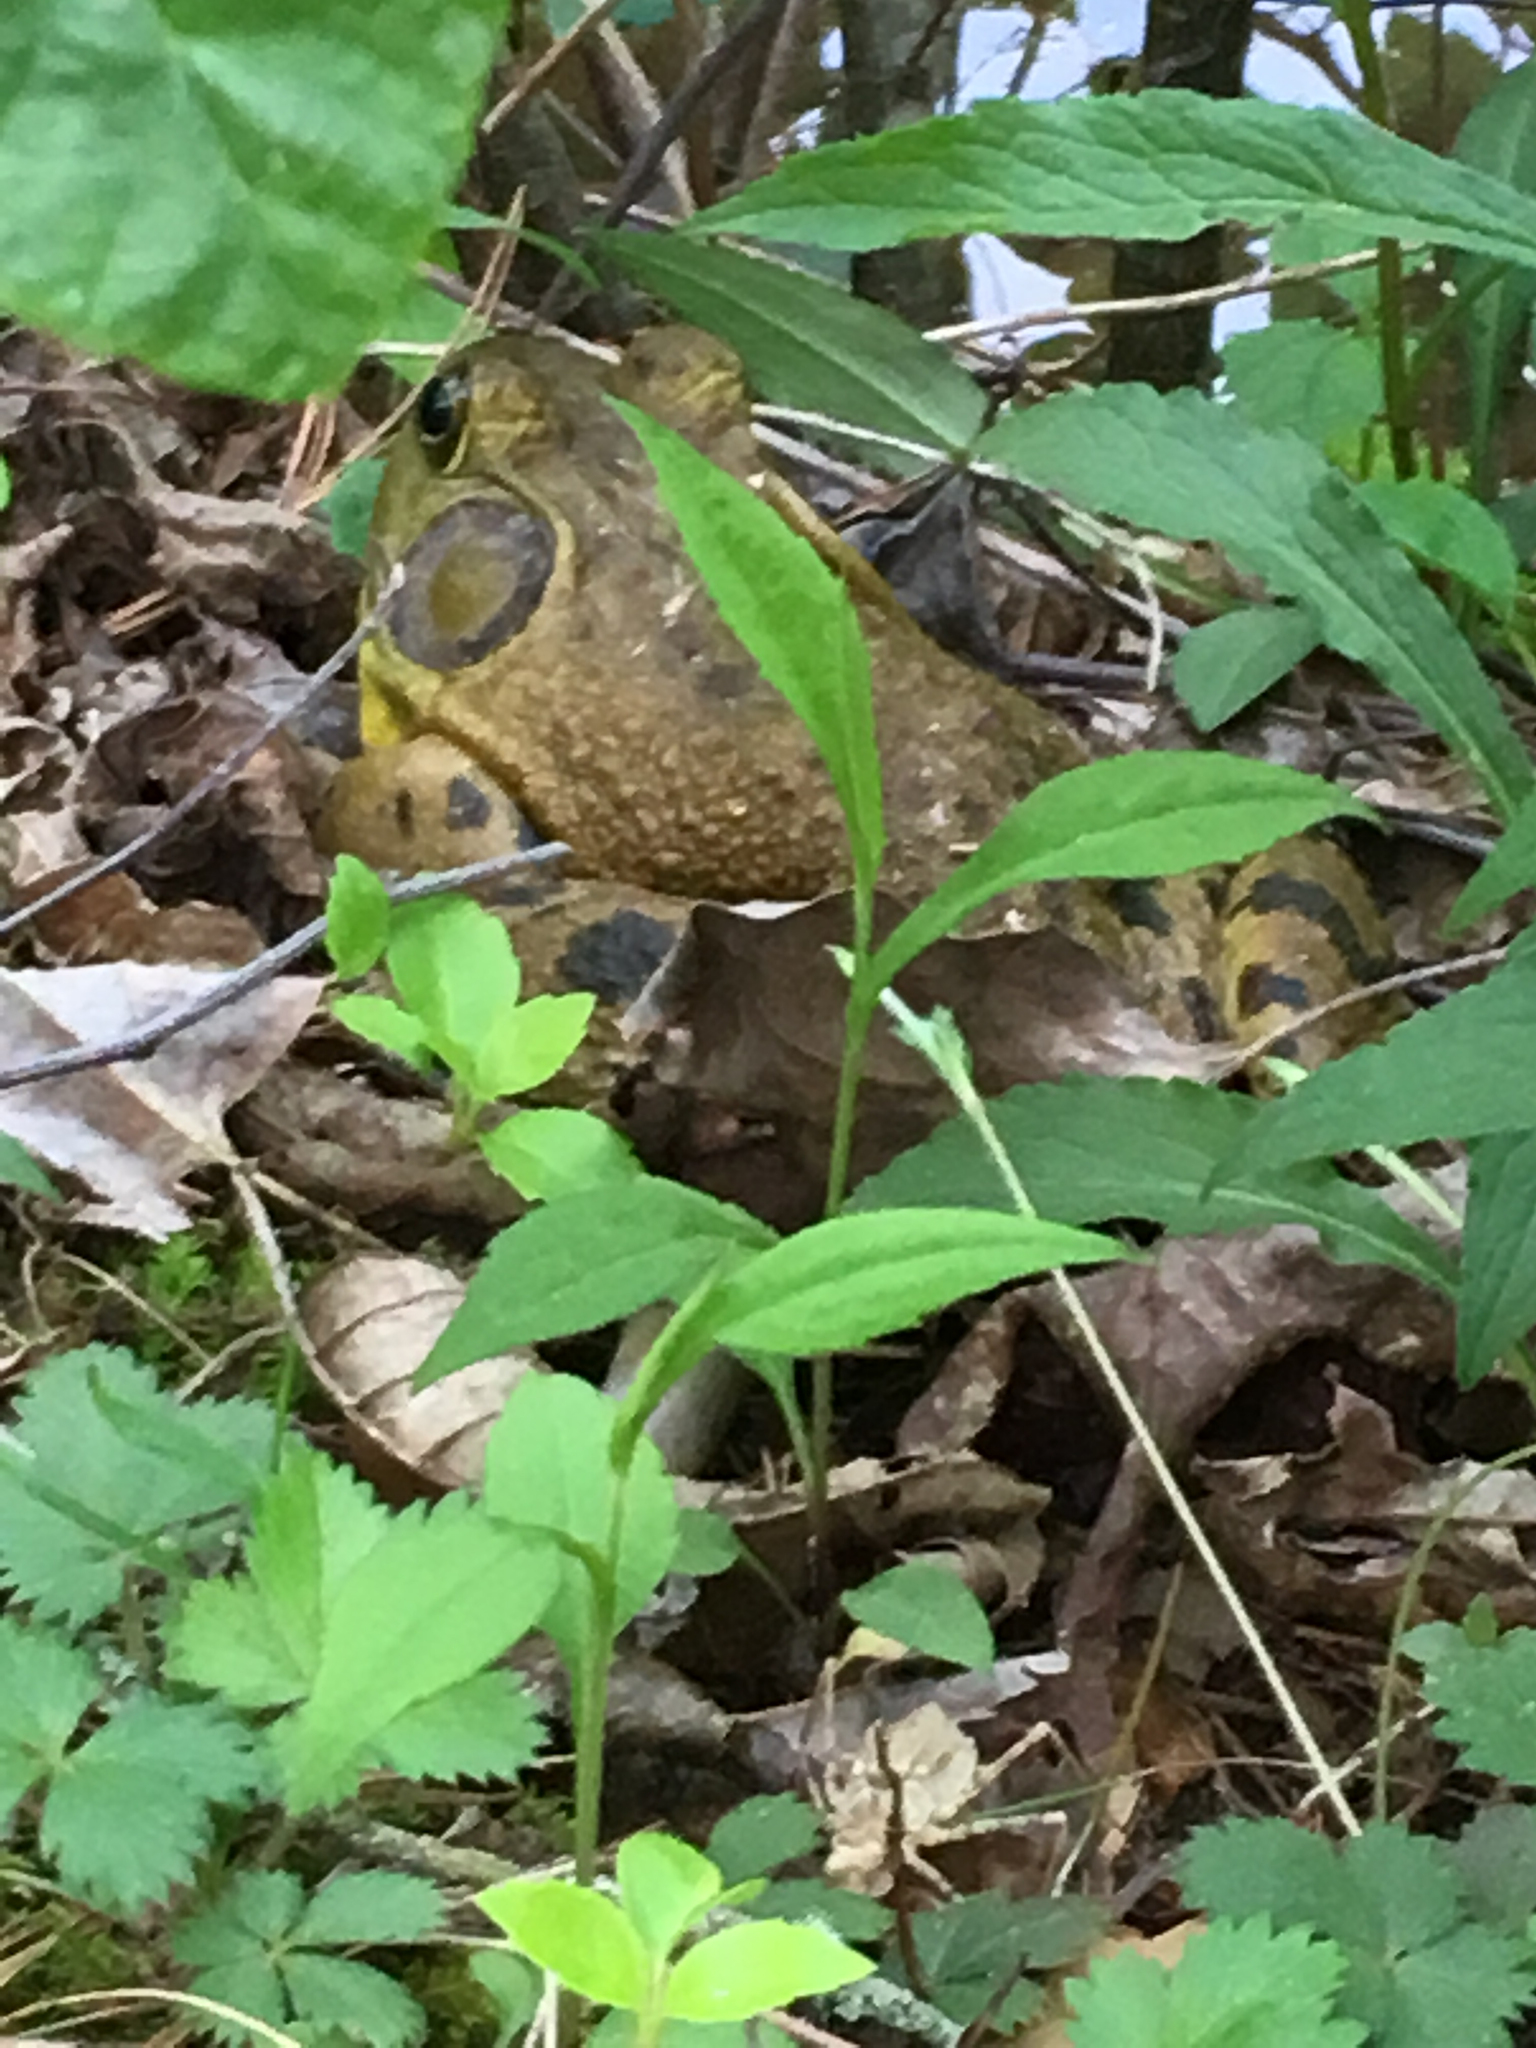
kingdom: Animalia
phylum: Chordata
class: Amphibia
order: Anura
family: Ranidae
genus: Lithobates
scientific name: Lithobates catesbeianus
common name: American bullfrog
